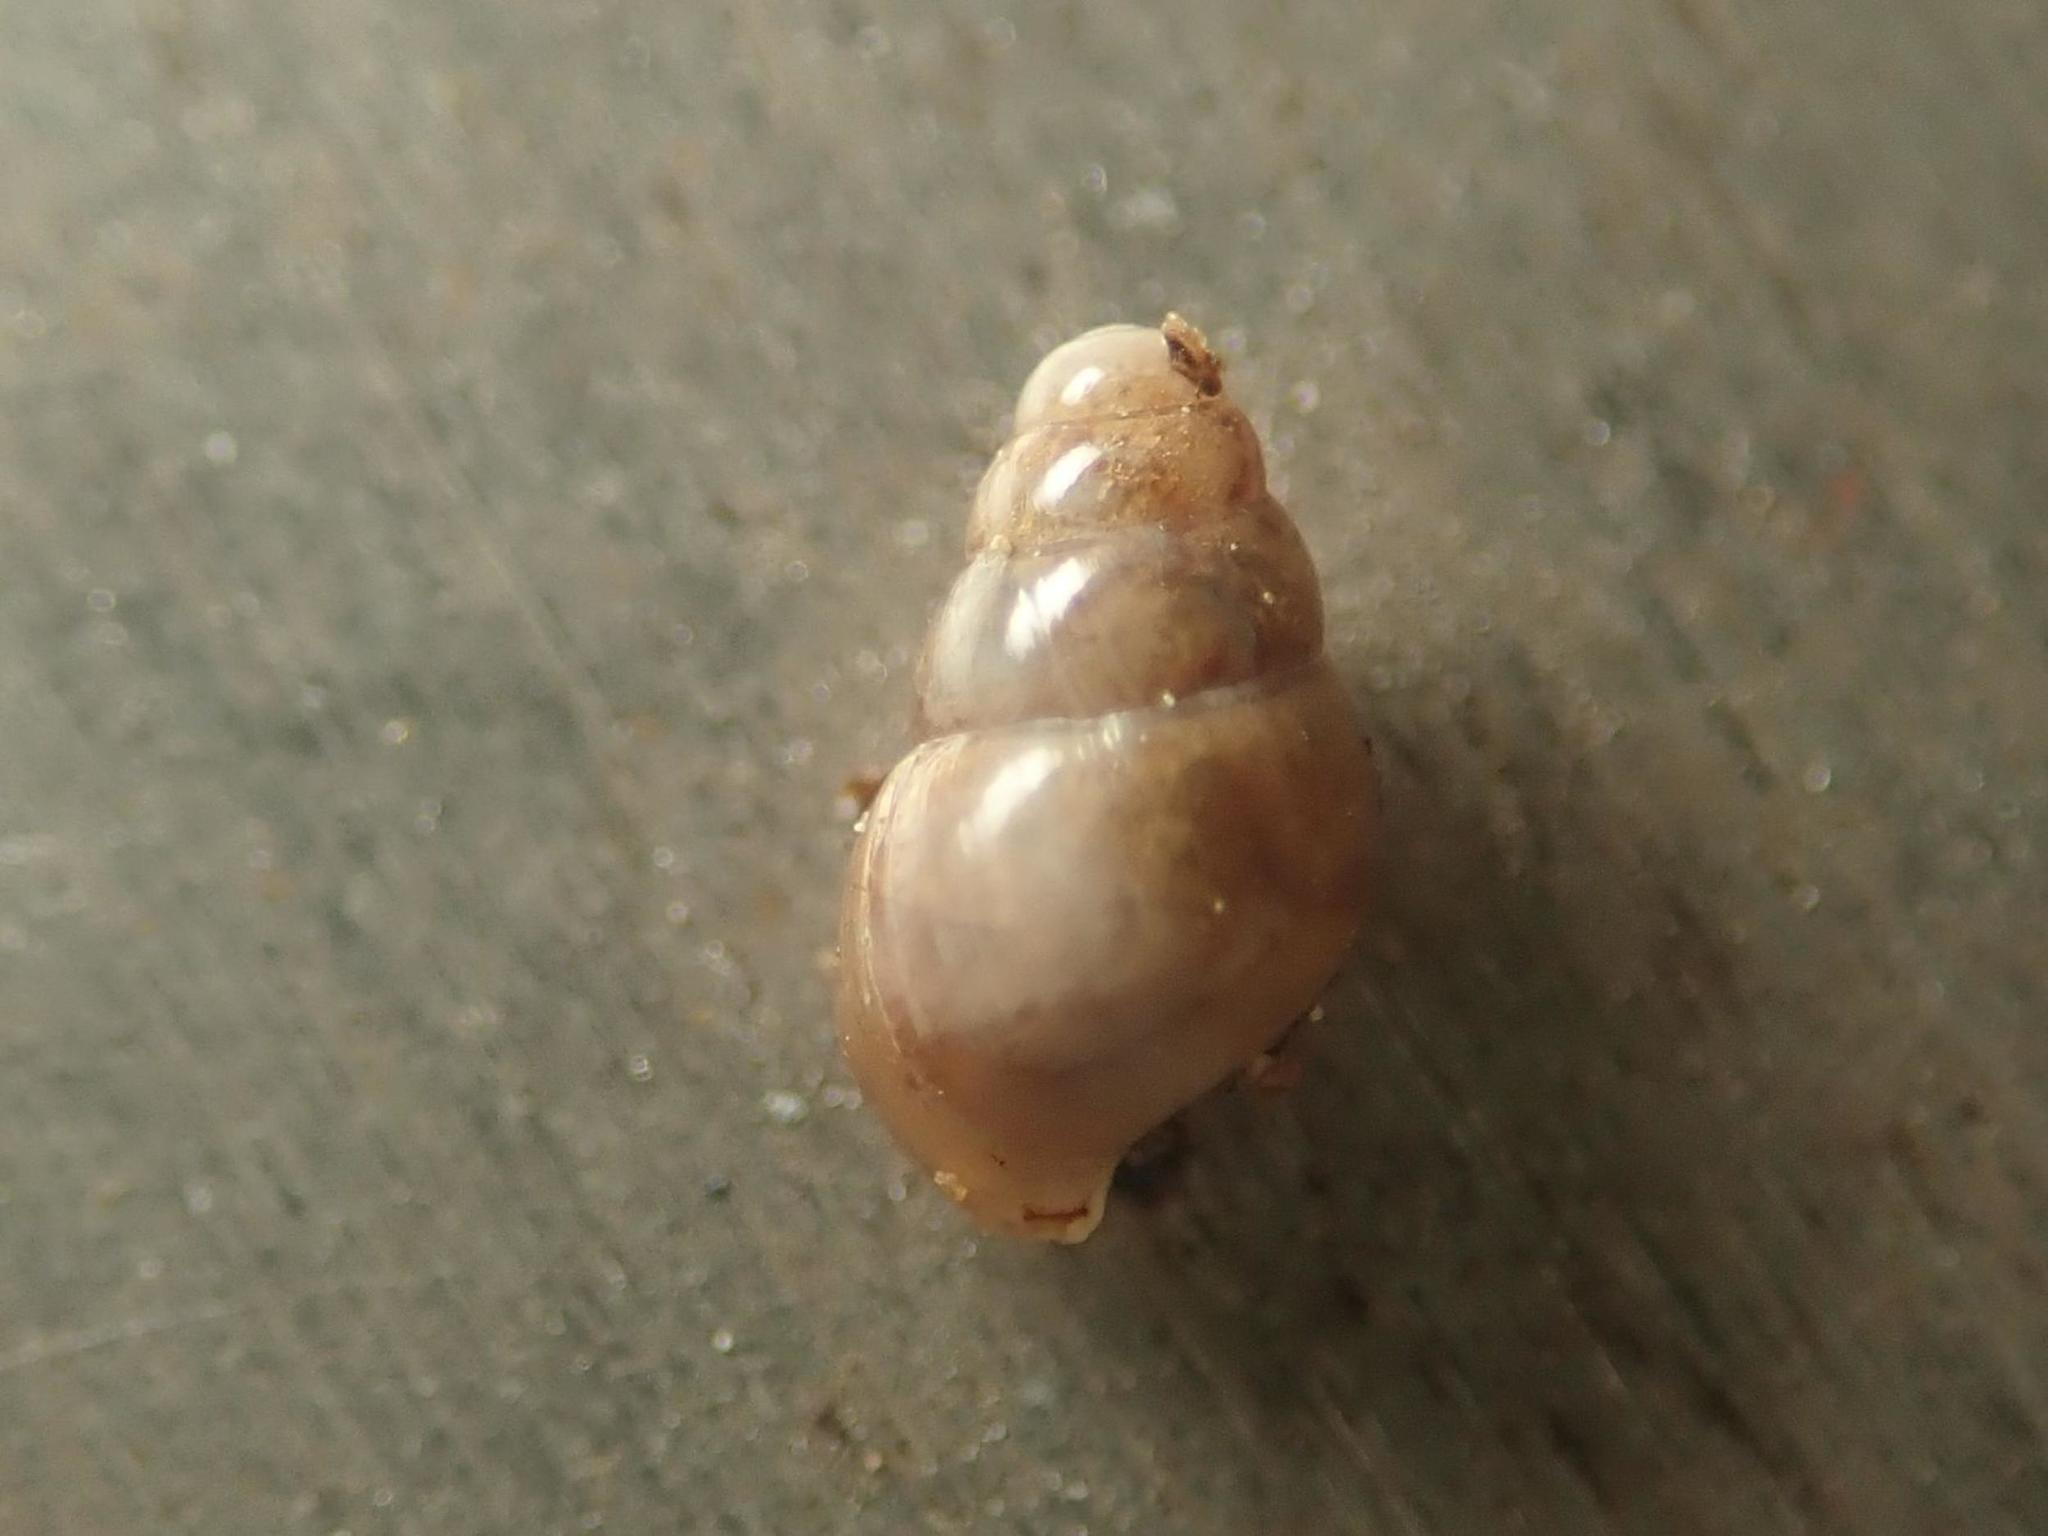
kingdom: Animalia
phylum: Mollusca
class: Gastropoda
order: Stylommatophora
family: Cochlicopidae
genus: Cochlicopa
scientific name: Cochlicopa lubrica
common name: Glossy pillar snail
